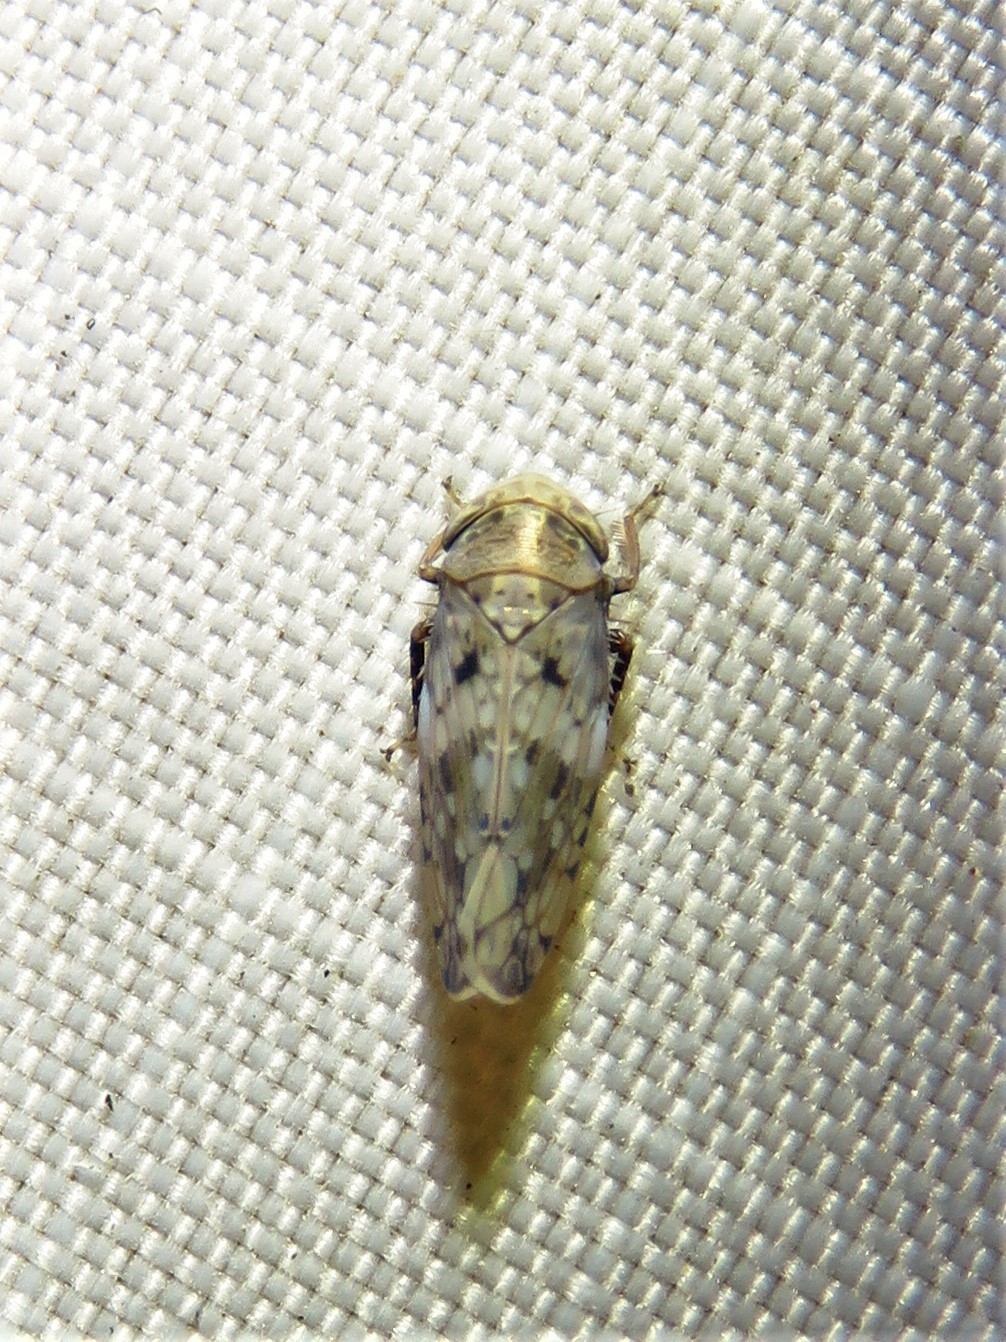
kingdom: Animalia
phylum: Arthropoda
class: Insecta
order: Hemiptera
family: Cicadellidae
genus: Menosoma
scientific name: Menosoma cinctum
